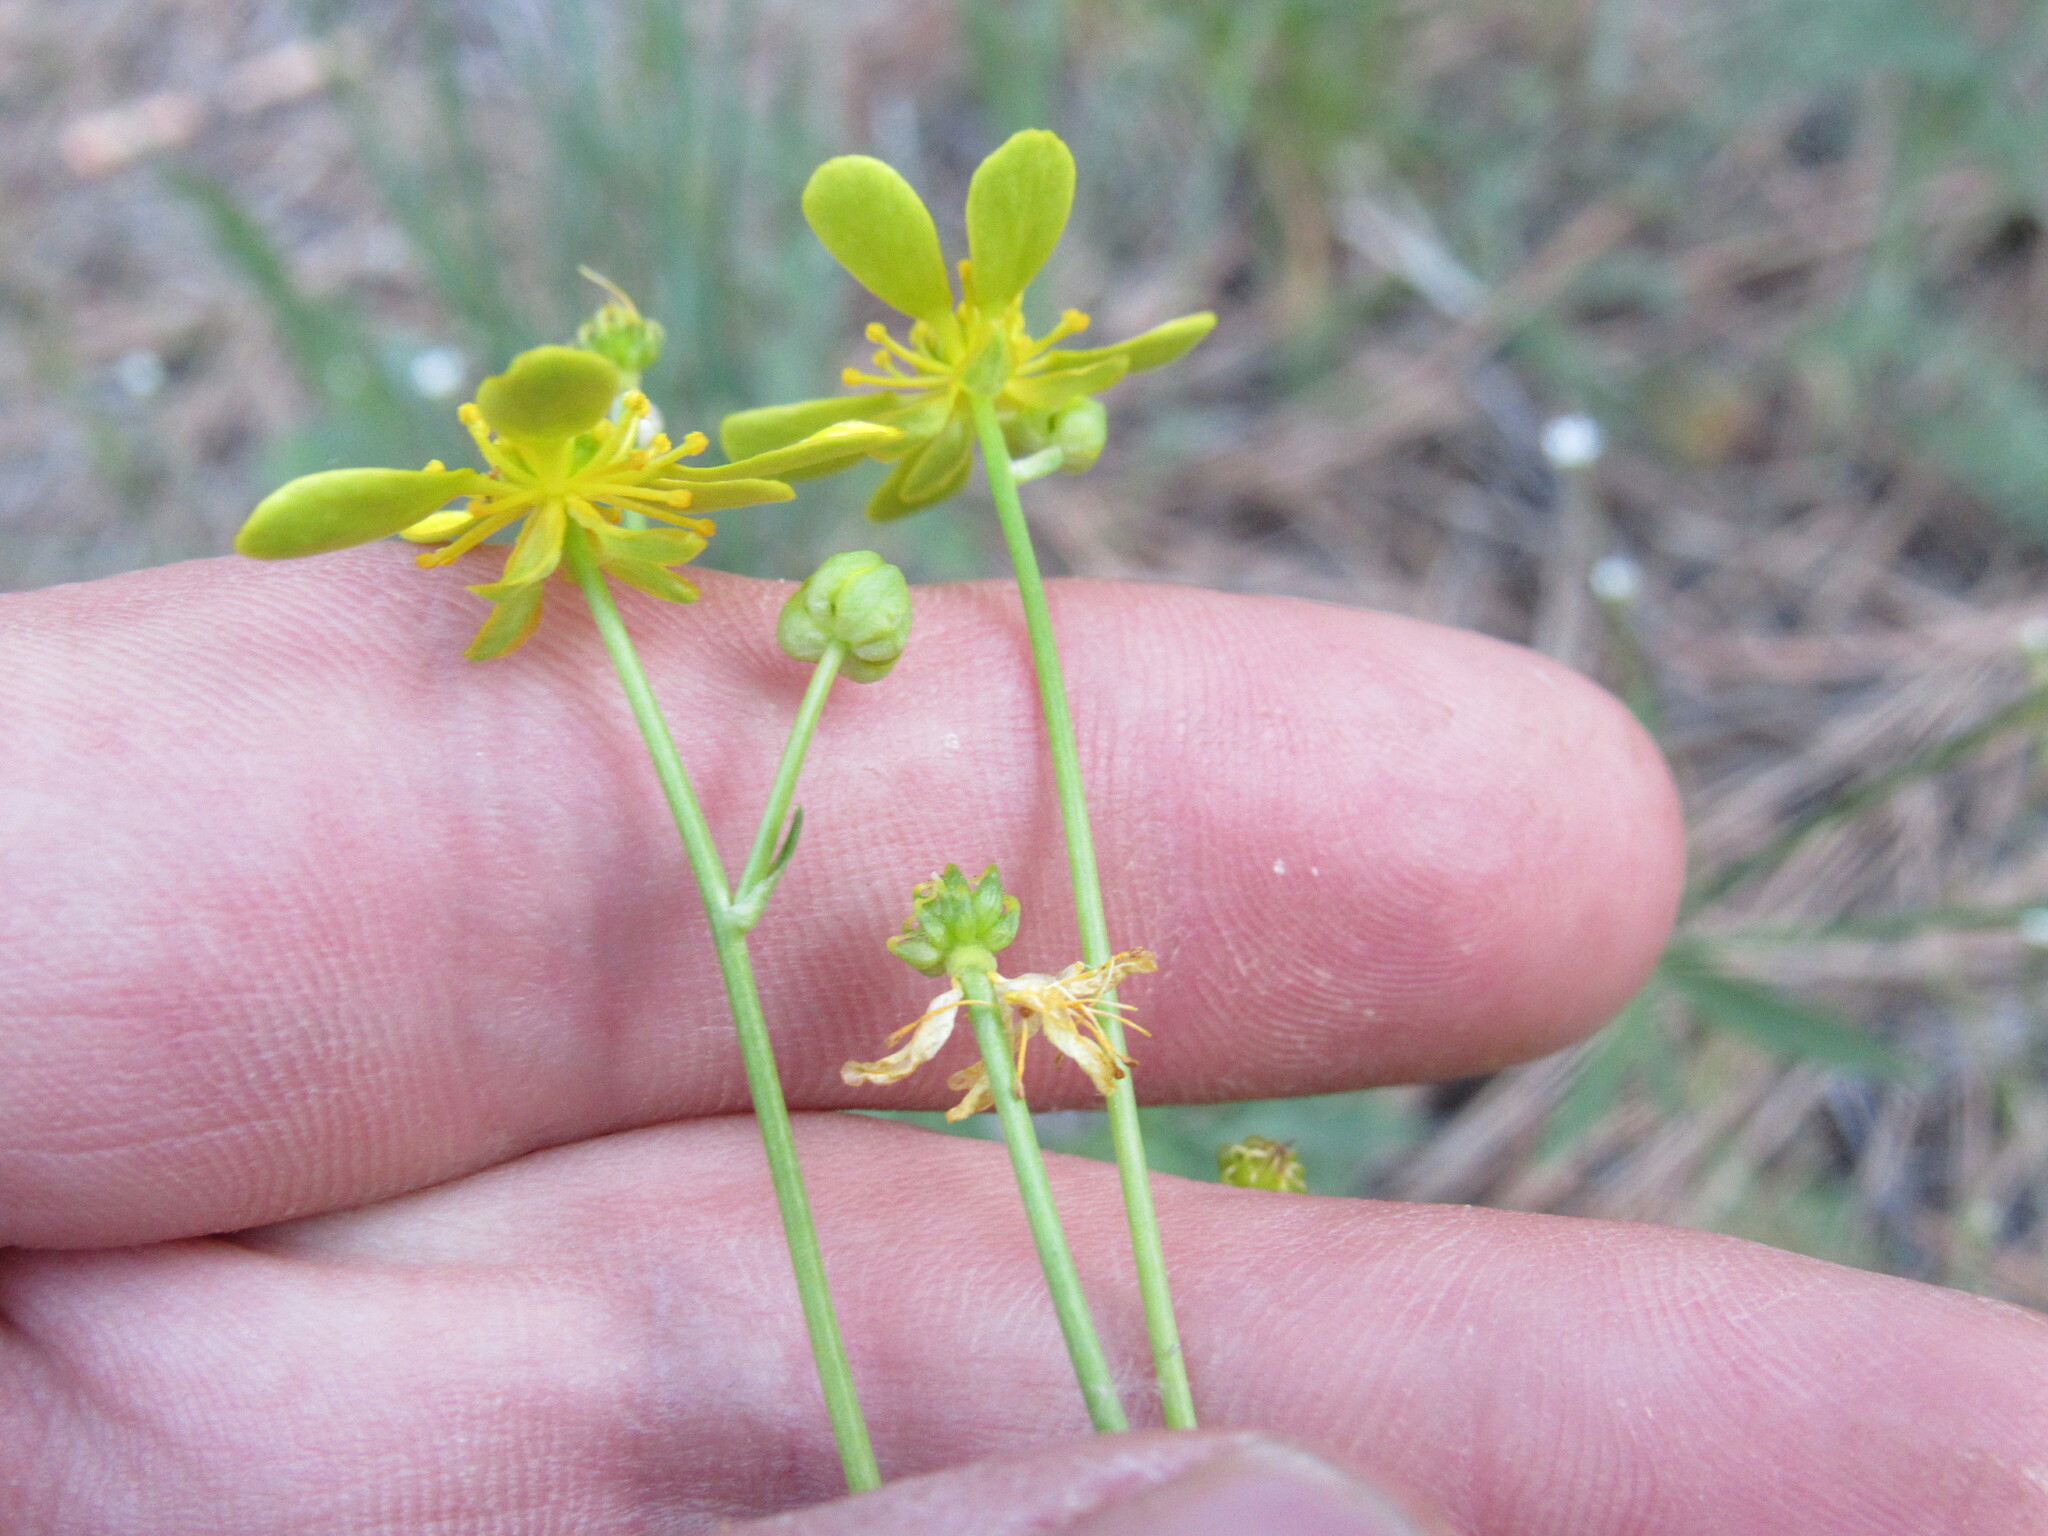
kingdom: Plantae
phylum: Tracheophyta
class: Magnoliopsida
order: Ranunculales
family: Ranunculaceae
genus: Cyrtorhyncha
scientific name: Cyrtorhyncha ranunculina
